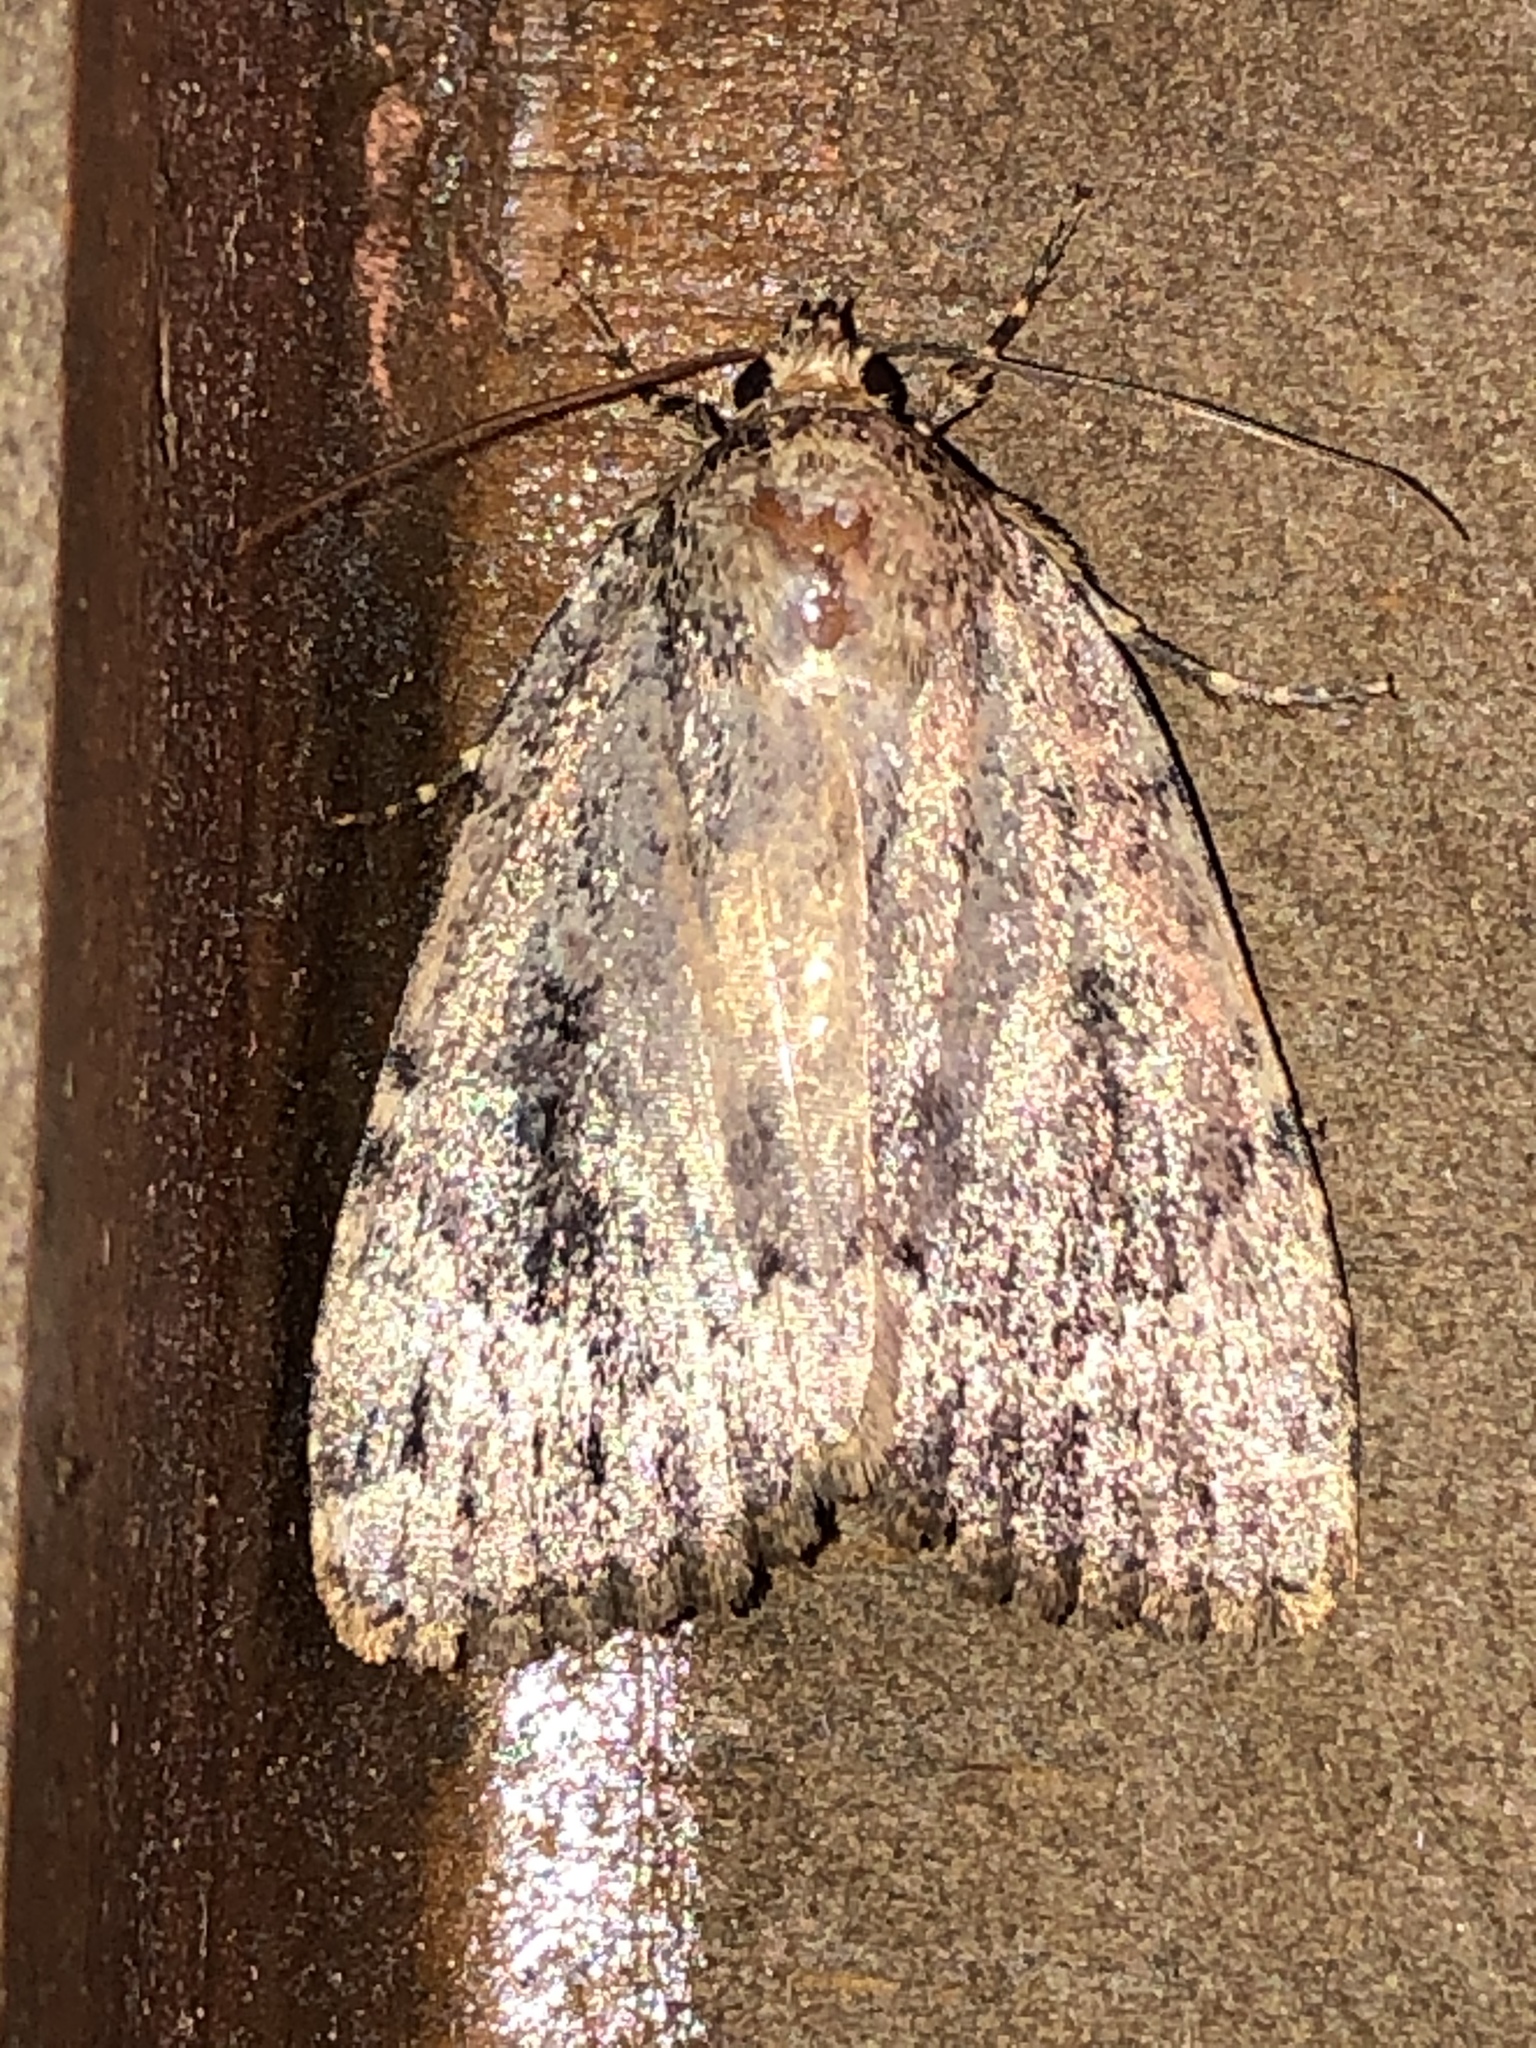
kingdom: Animalia
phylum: Arthropoda
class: Insecta
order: Lepidoptera
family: Noctuidae
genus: Amphipyra
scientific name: Amphipyra pyramidoides
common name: American copper underwing
